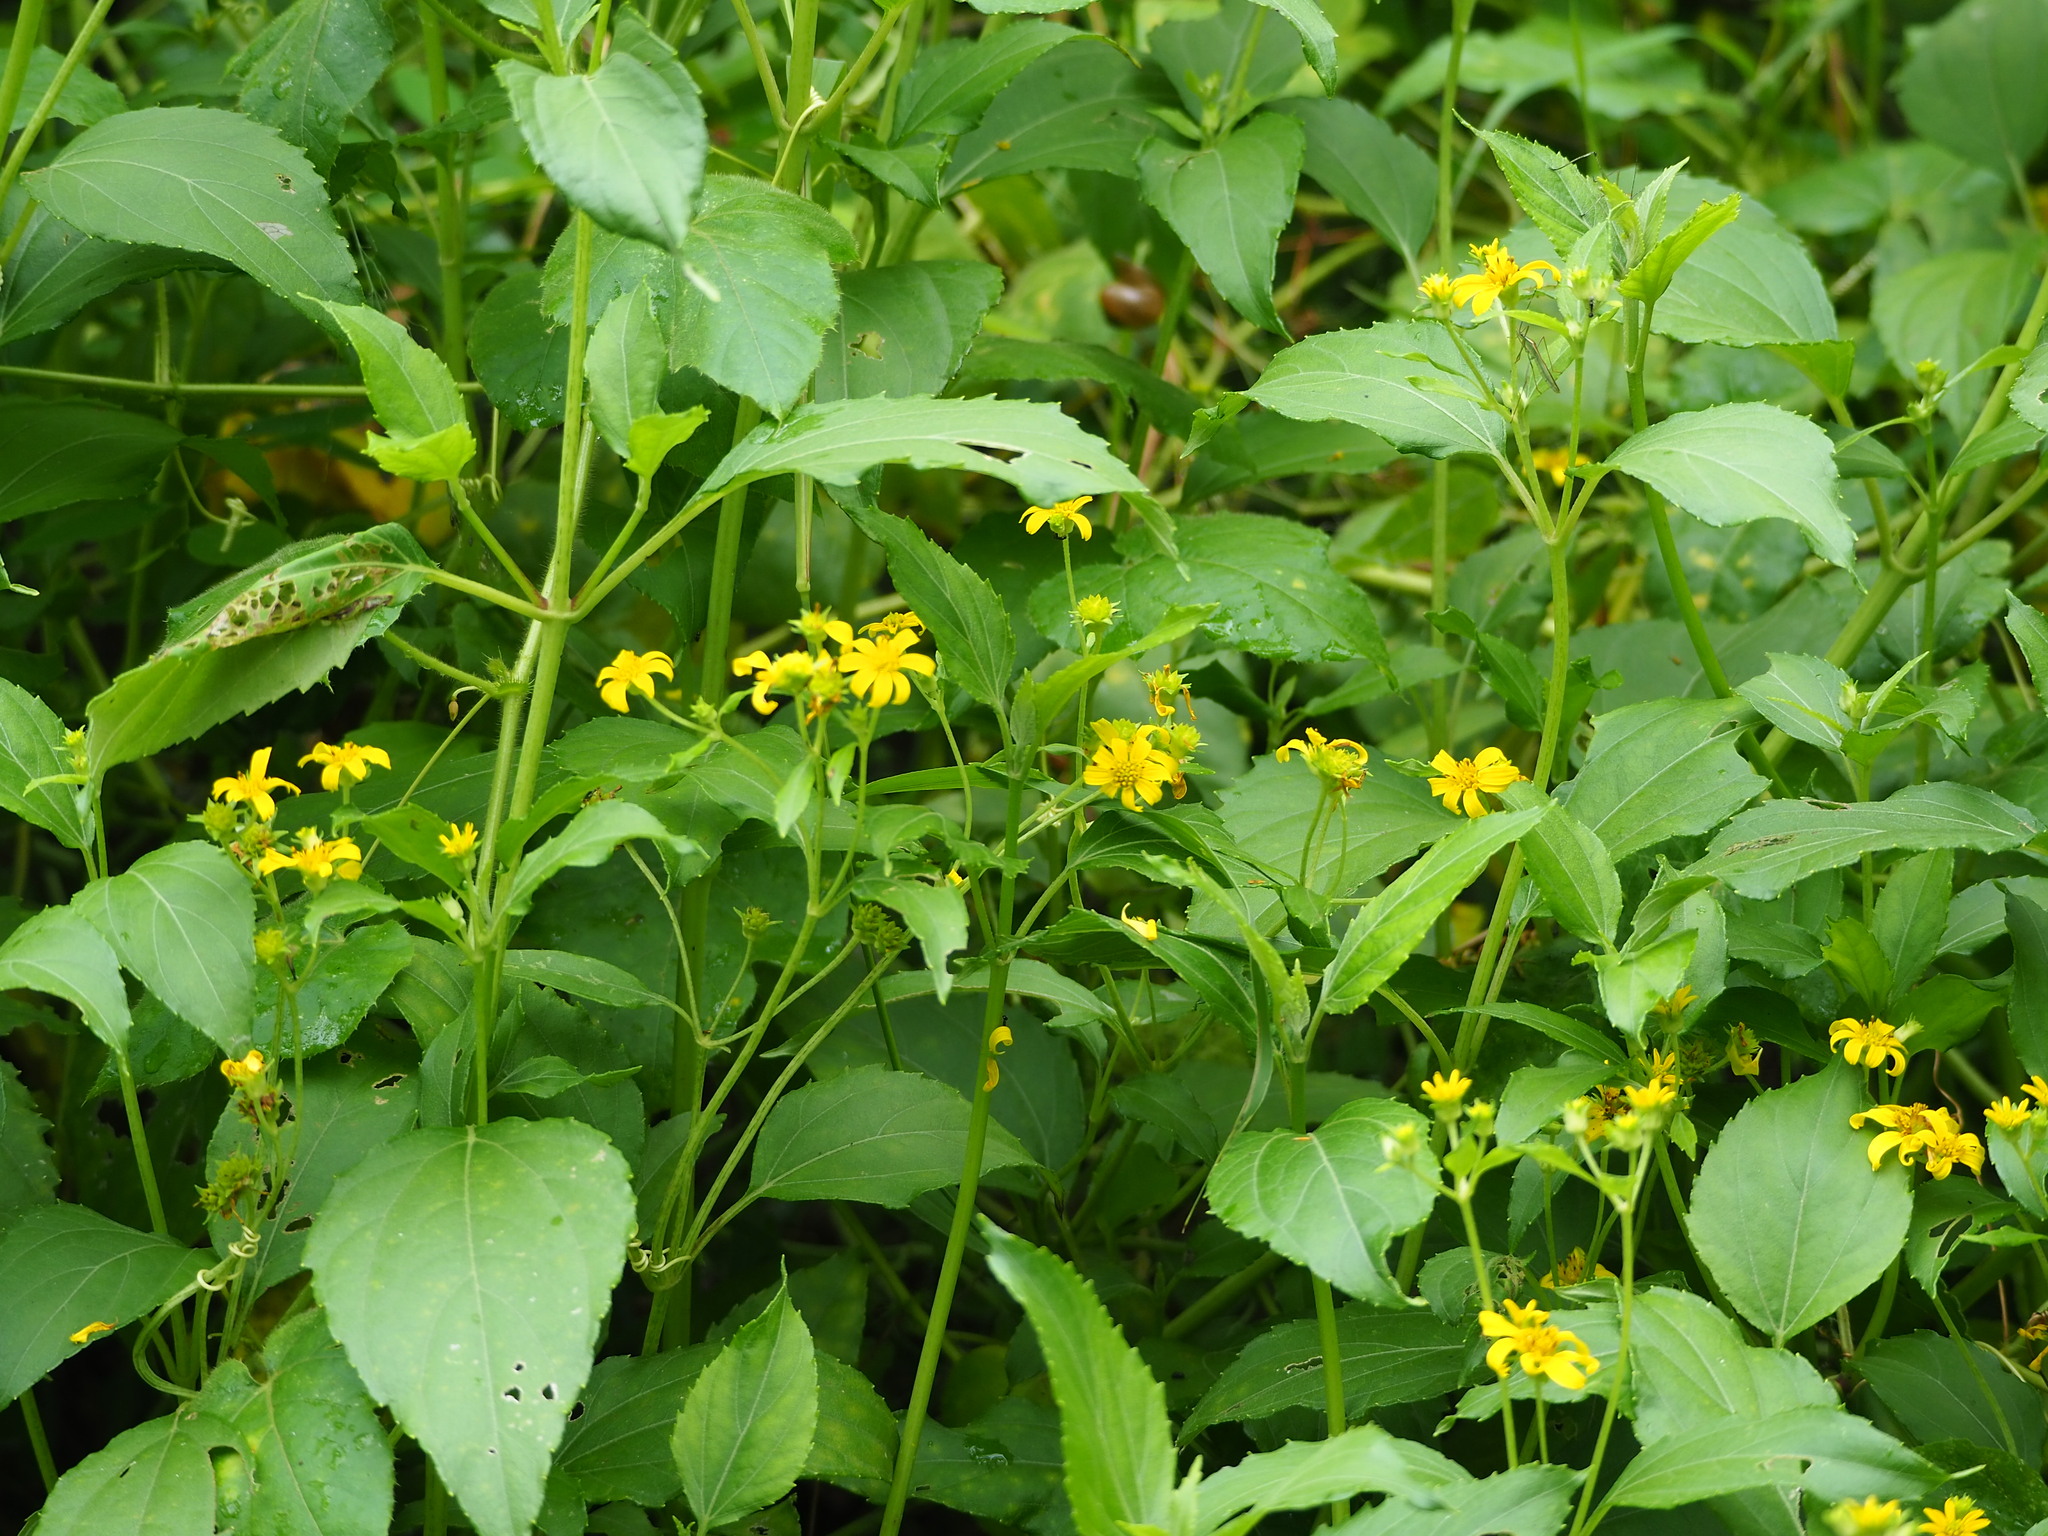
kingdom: Plantae
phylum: Tracheophyta
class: Magnoliopsida
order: Asterales
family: Asteraceae
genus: Wollastonia
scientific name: Wollastonia biflora
